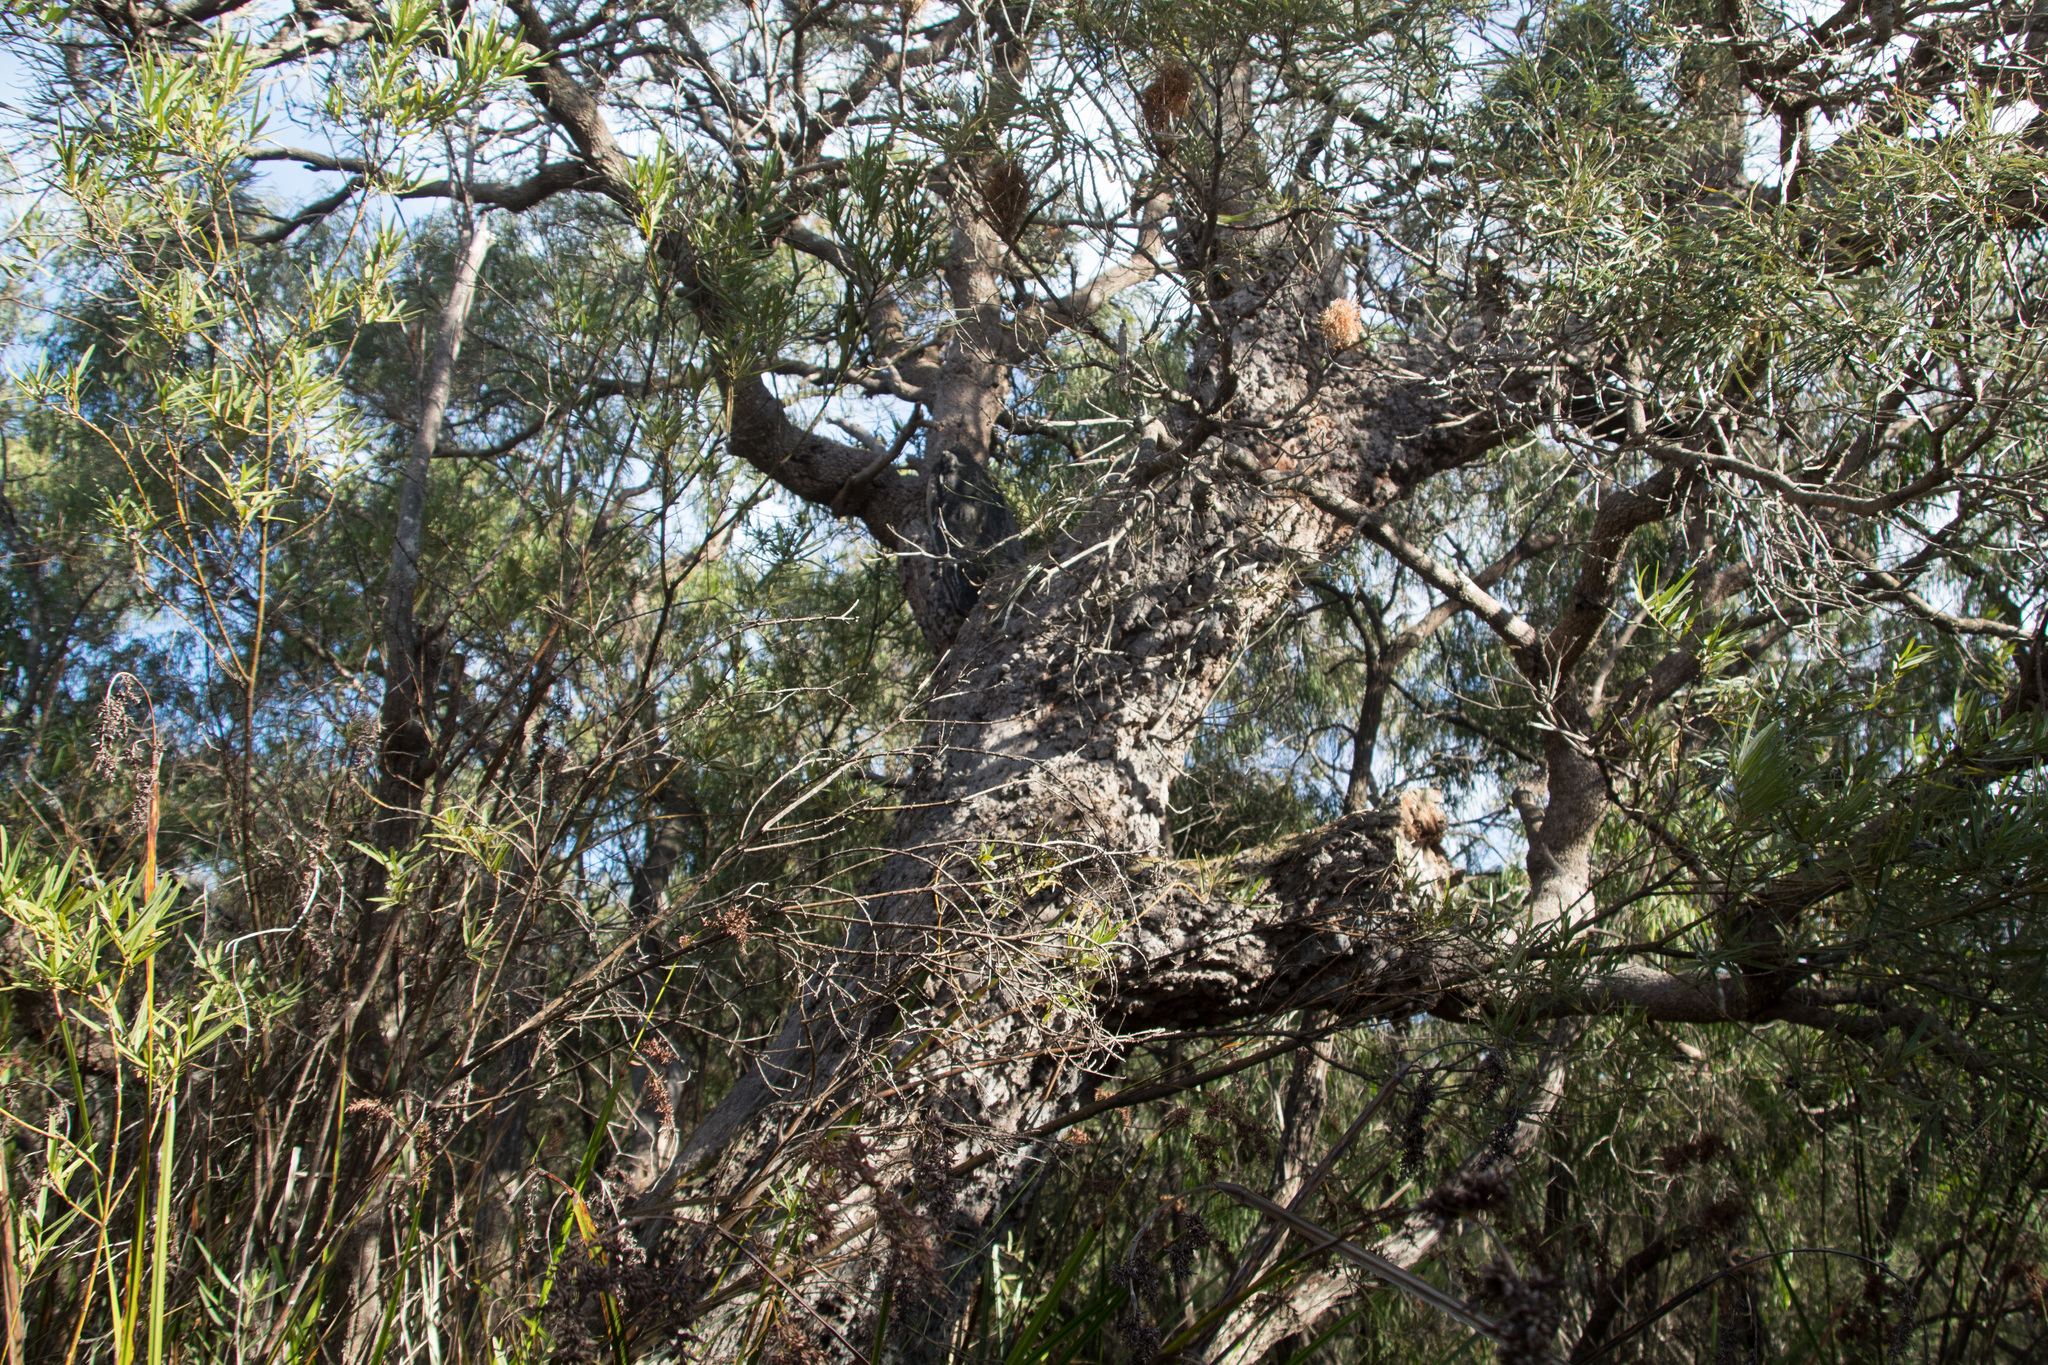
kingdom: Plantae
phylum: Tracheophyta
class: Magnoliopsida
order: Proteales
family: Proteaceae
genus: Banksia
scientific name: Banksia littoralis
